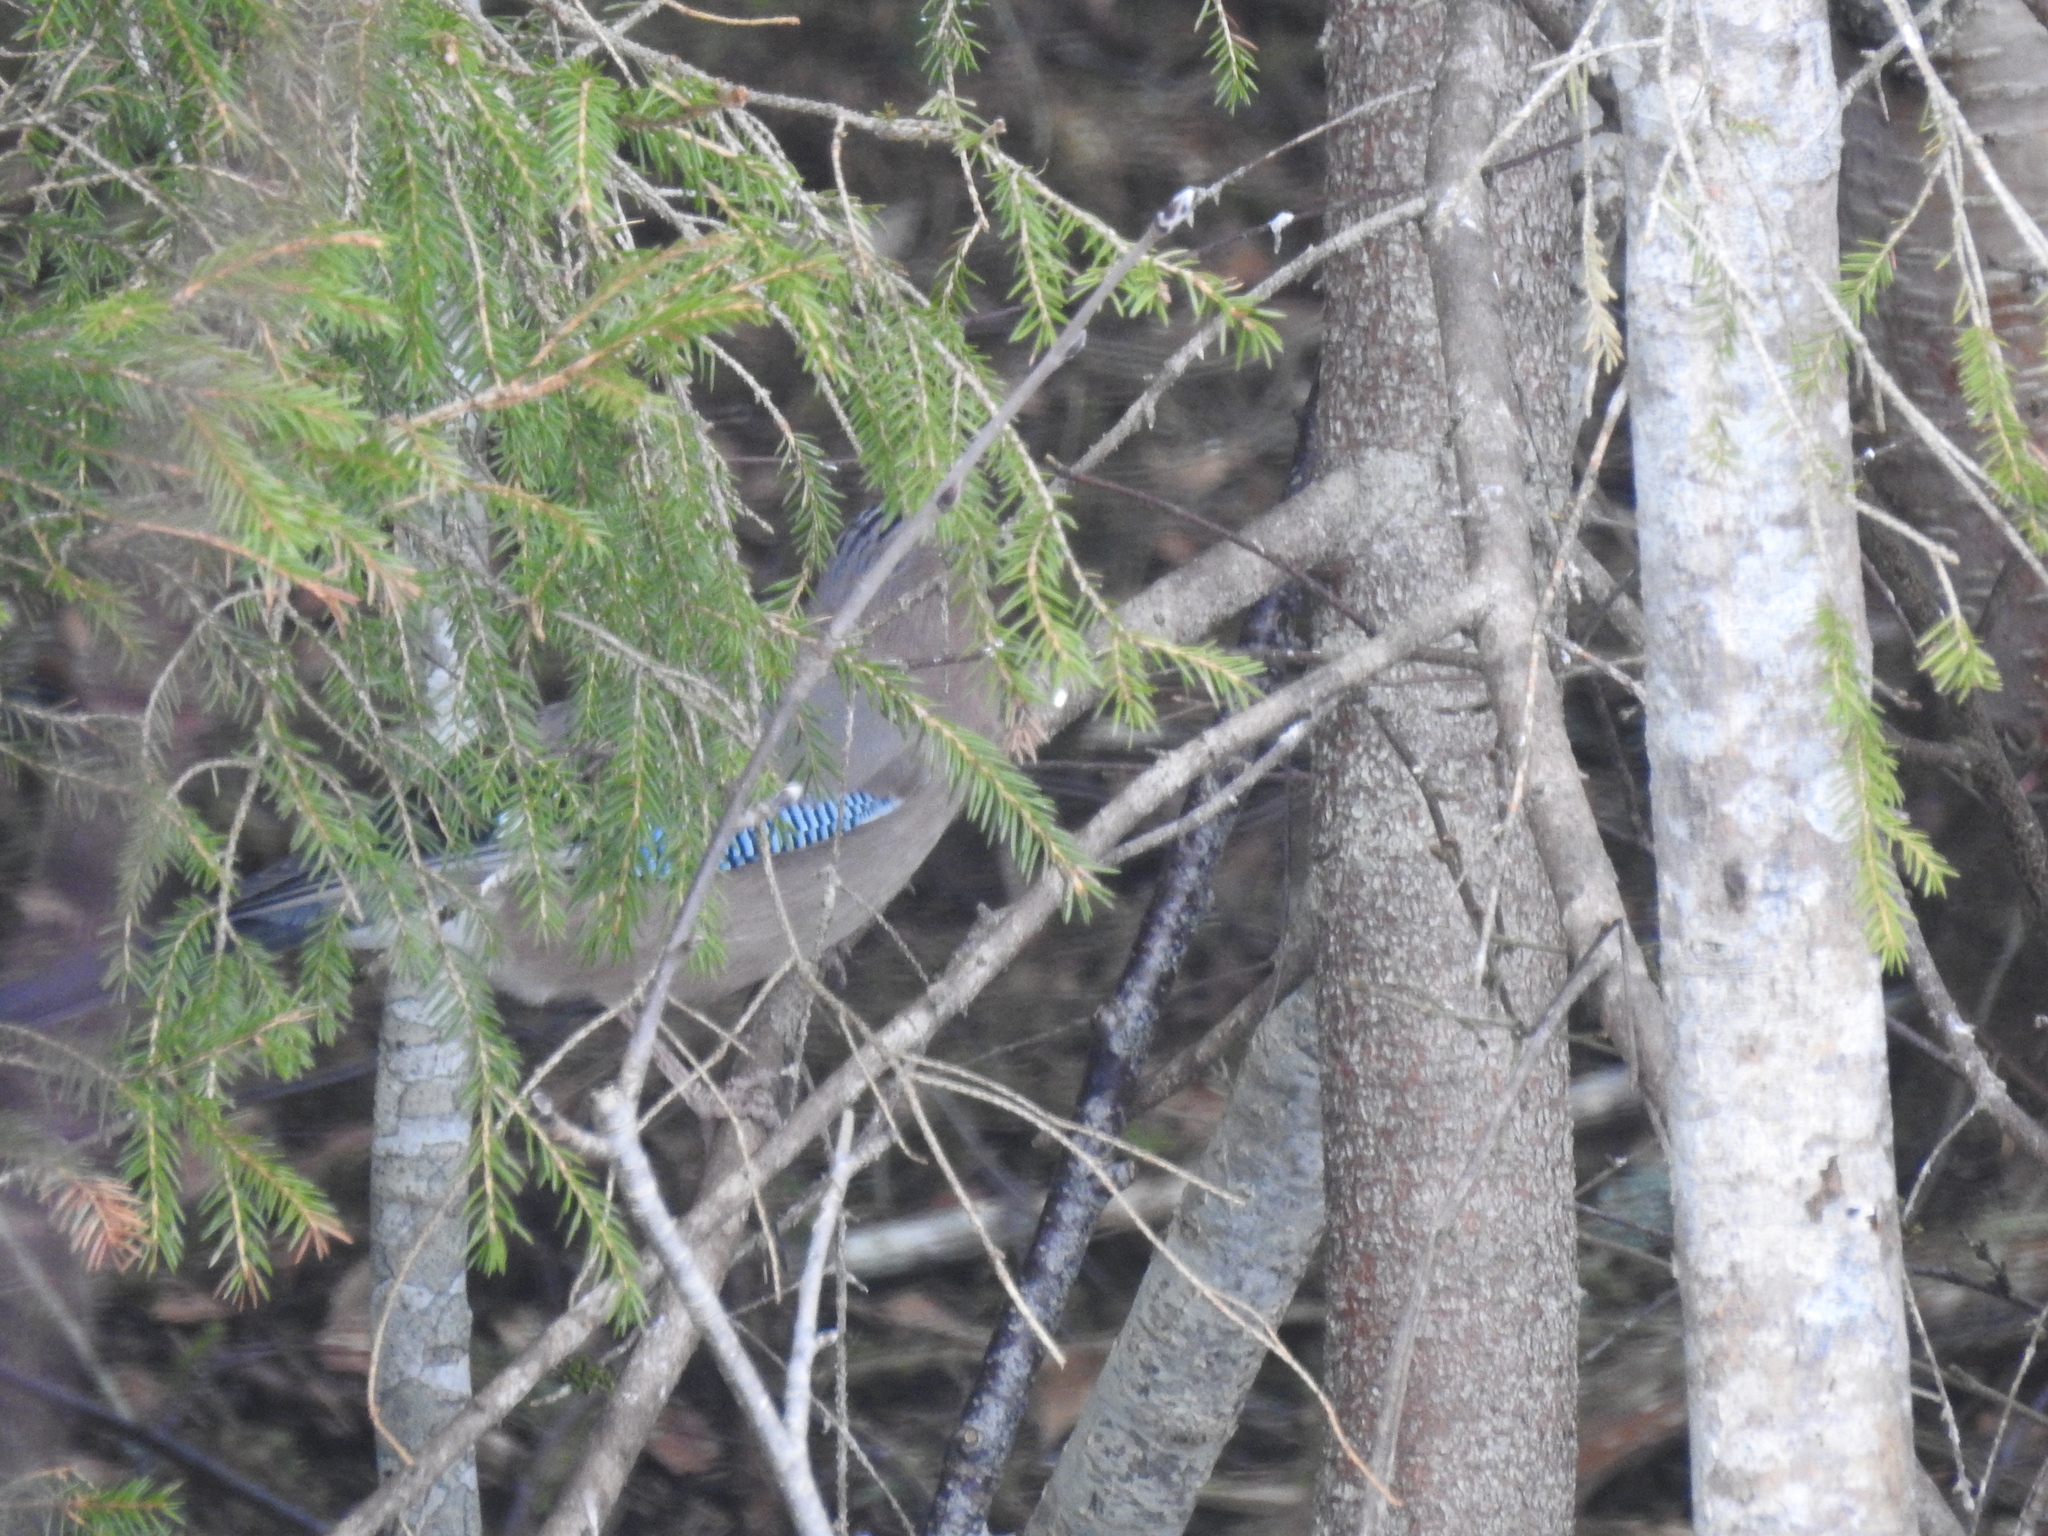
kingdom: Animalia
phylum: Chordata
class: Aves
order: Passeriformes
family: Corvidae
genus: Garrulus
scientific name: Garrulus glandarius
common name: Eurasian jay
